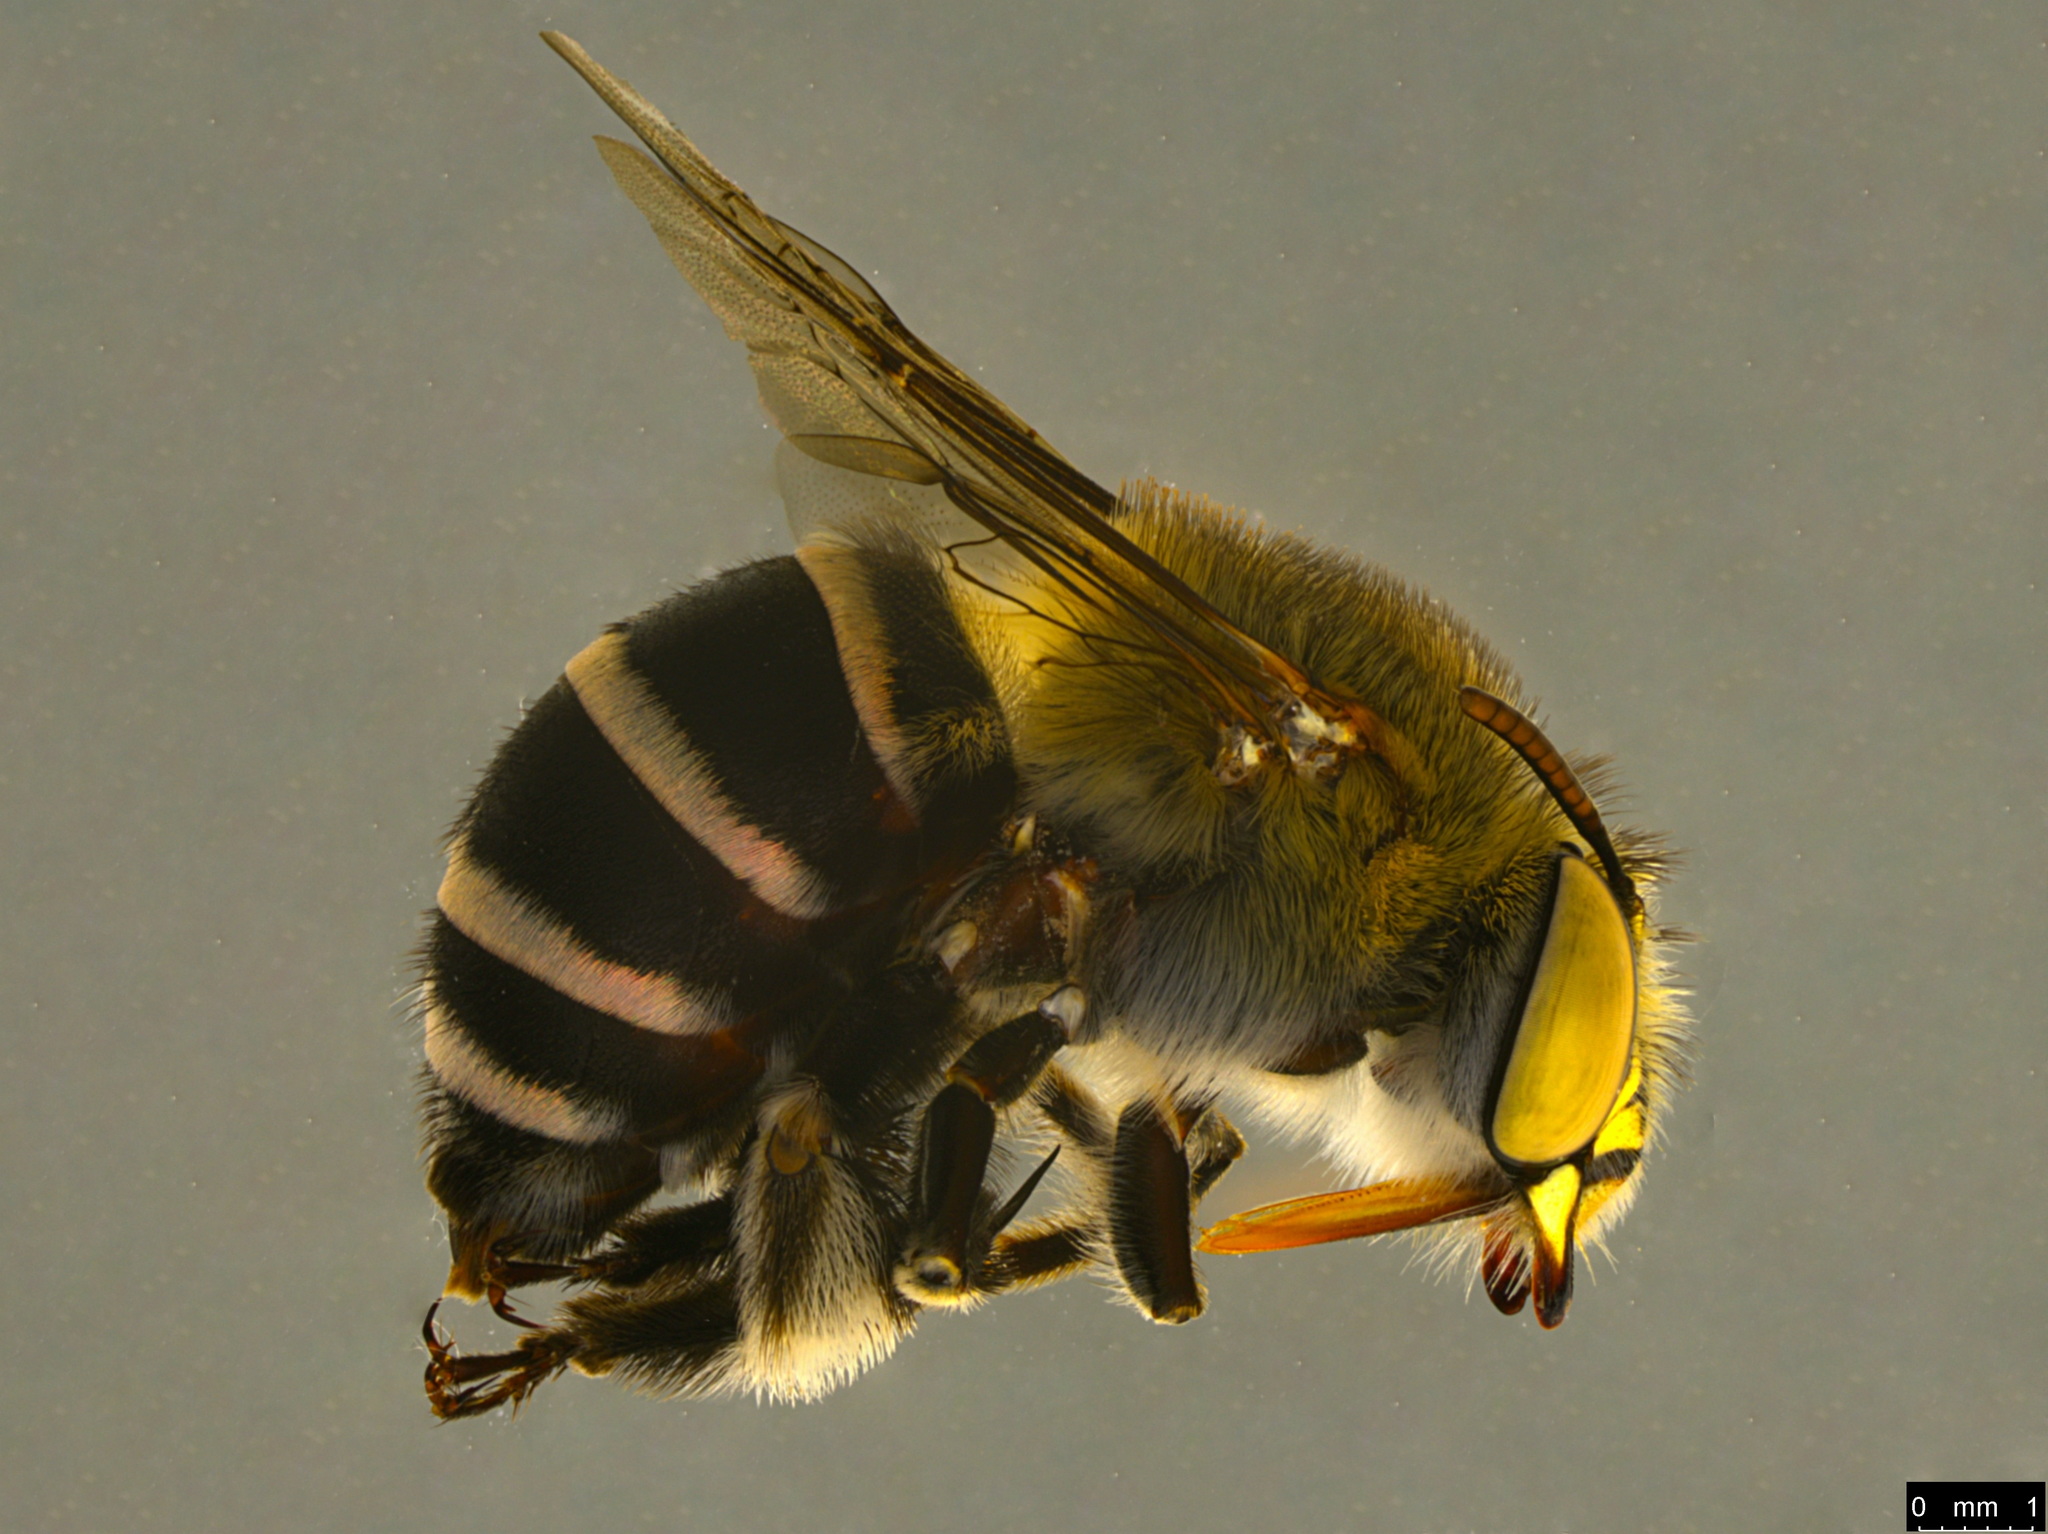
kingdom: Animalia
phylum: Arthropoda
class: Insecta
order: Hymenoptera
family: Apidae
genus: Amegilla
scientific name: Amegilla asserta
